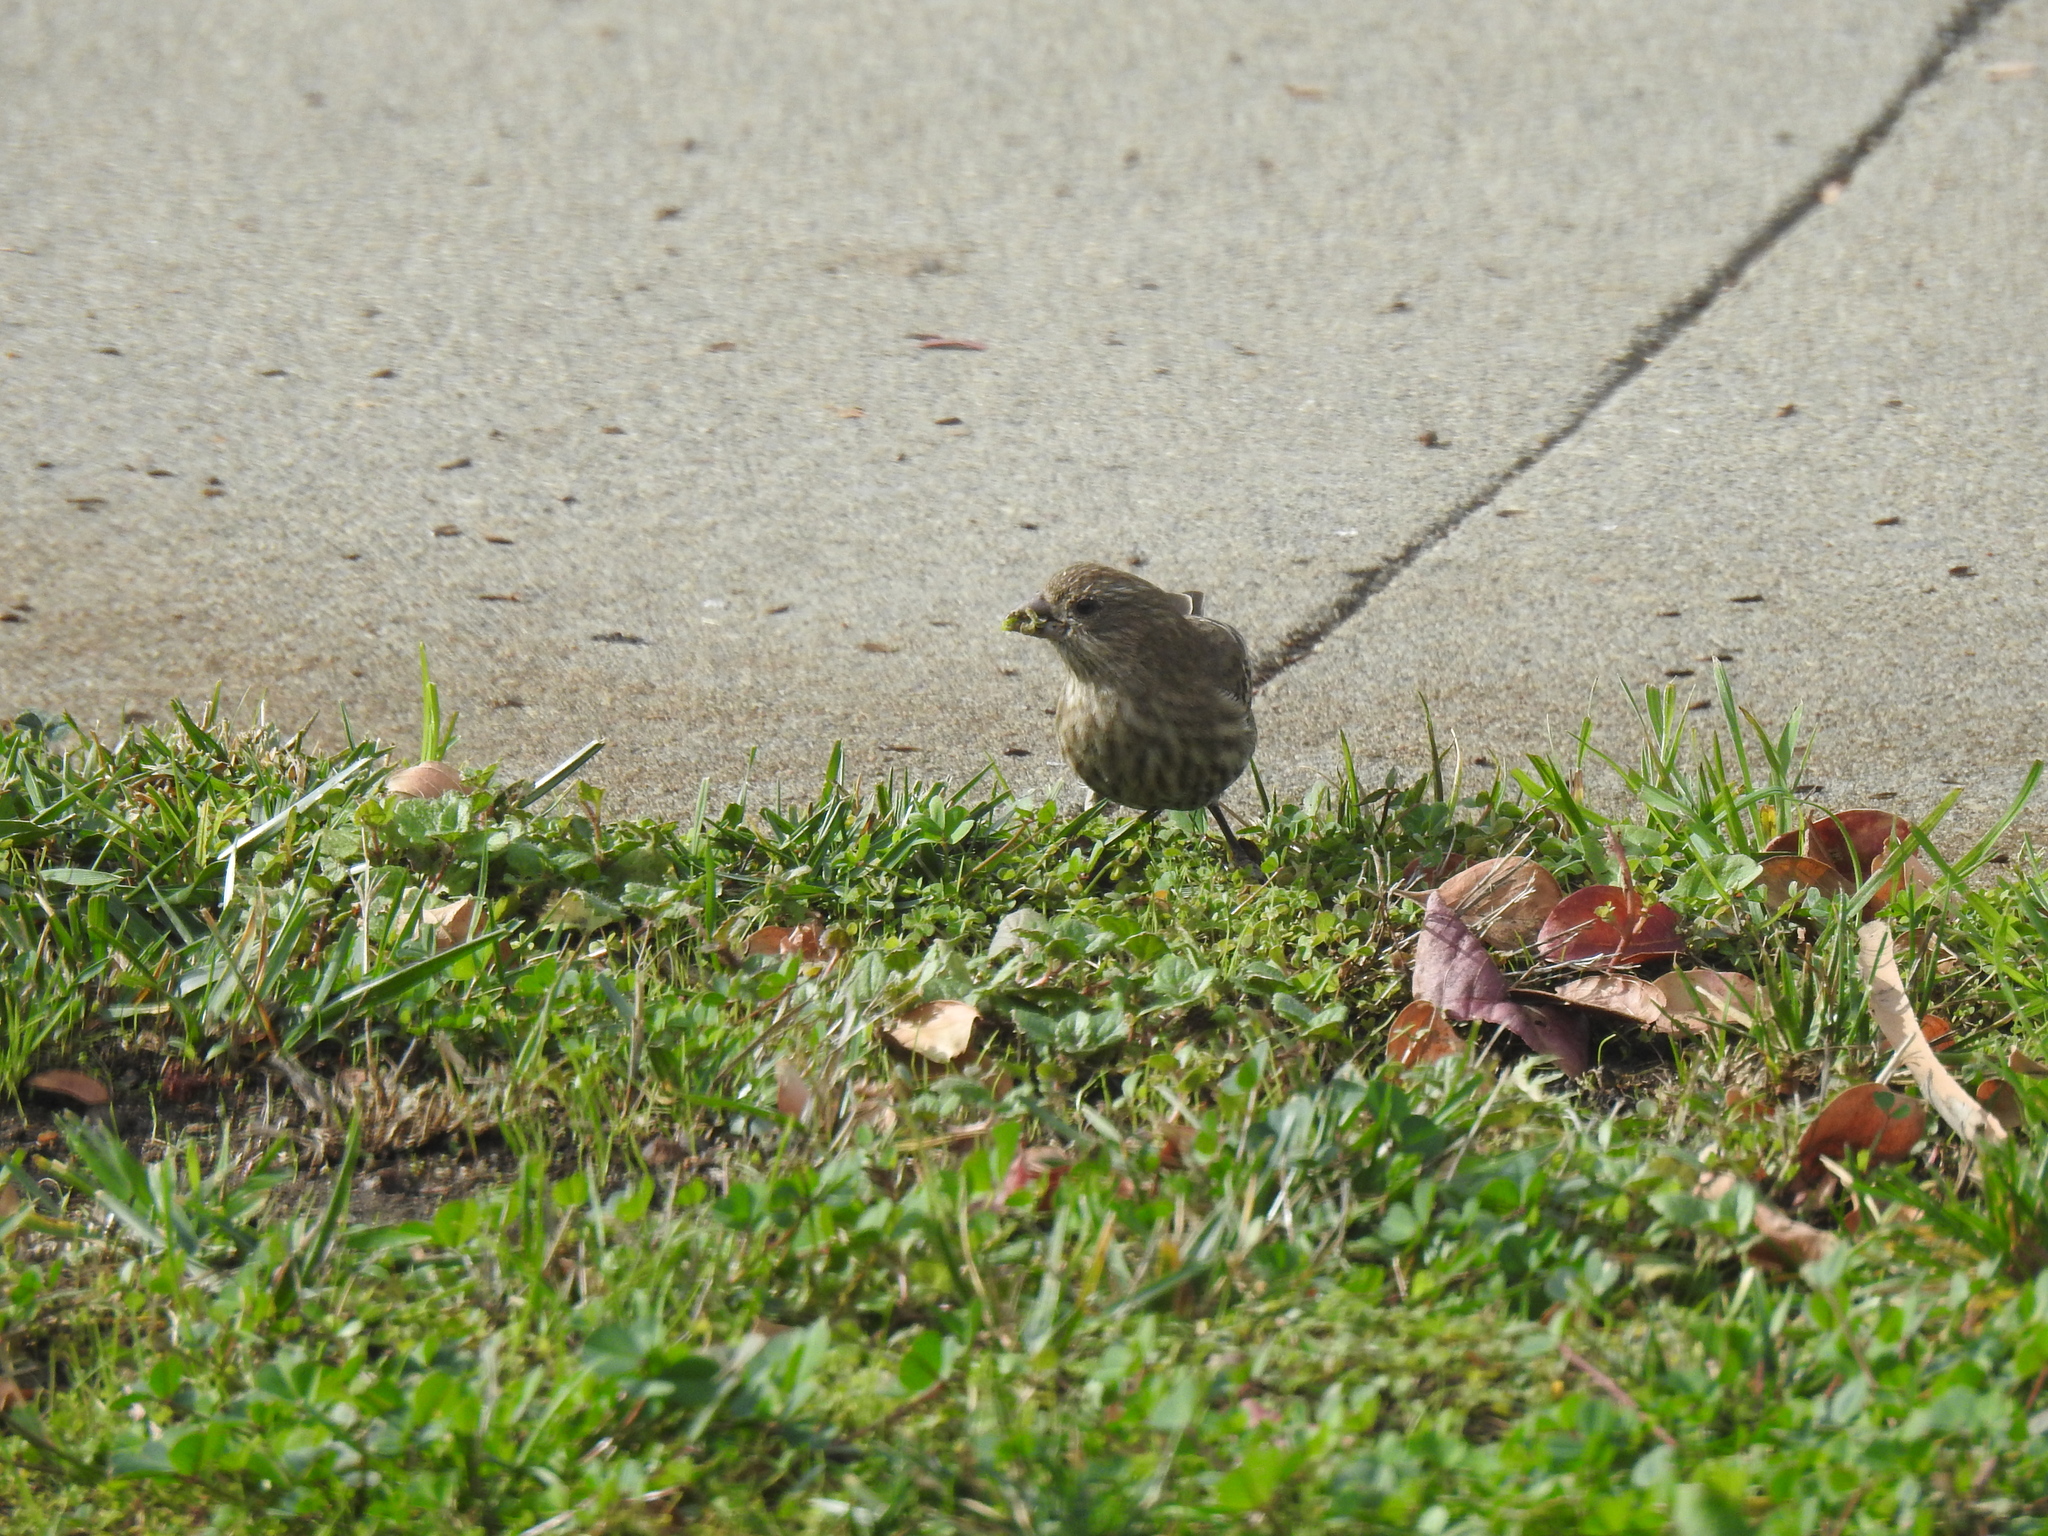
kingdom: Animalia
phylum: Chordata
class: Aves
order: Passeriformes
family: Fringillidae
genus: Haemorhous
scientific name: Haemorhous mexicanus
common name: House finch
